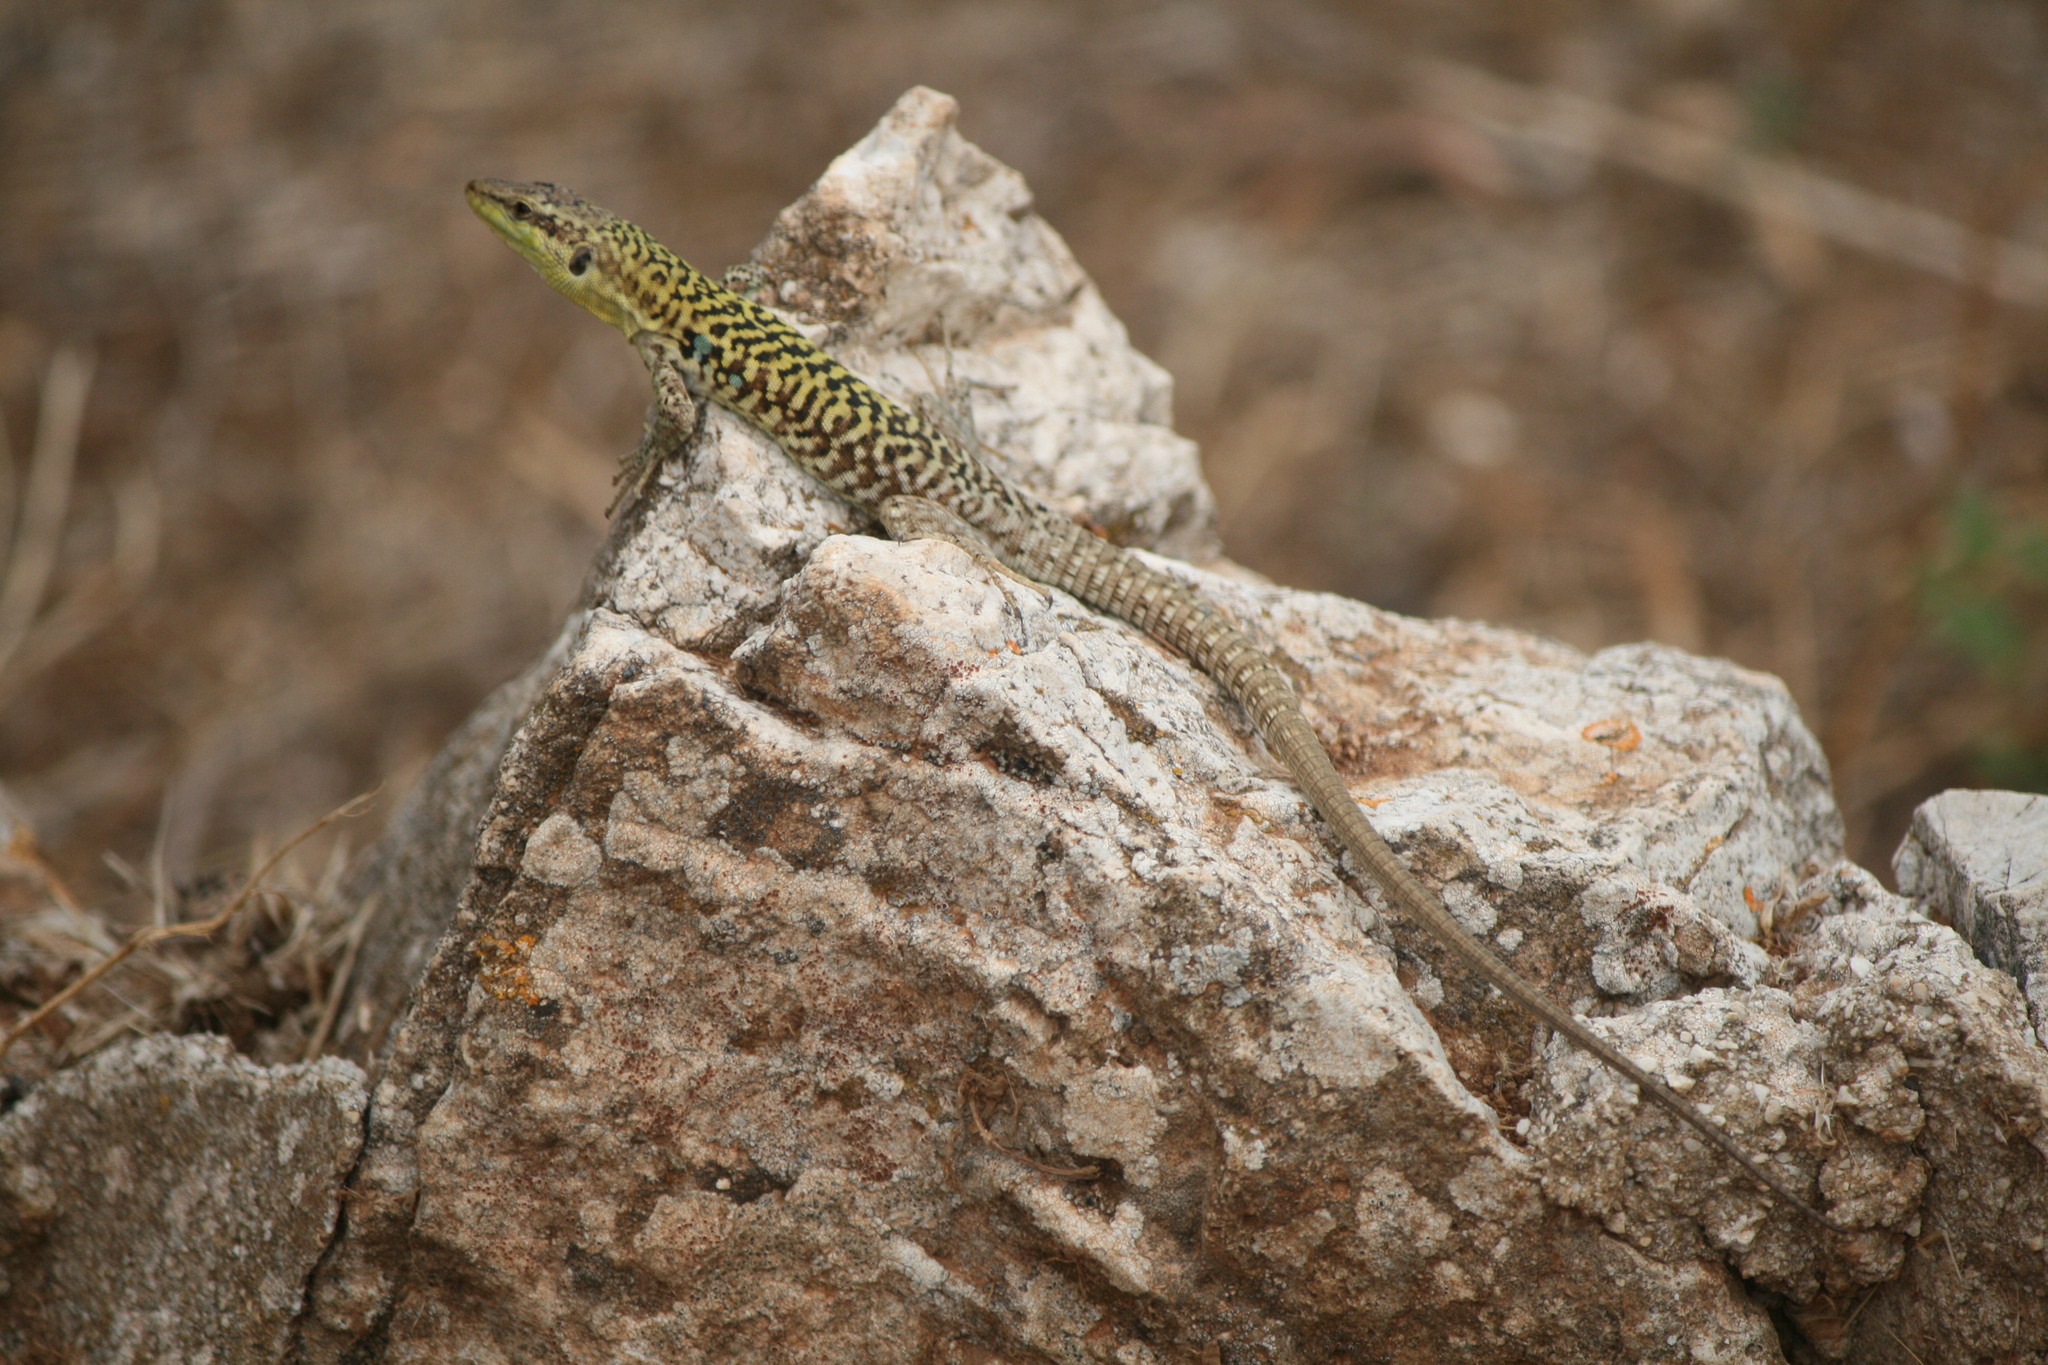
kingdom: Animalia
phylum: Chordata
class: Squamata
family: Lacertidae
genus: Podarcis
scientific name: Podarcis siculus
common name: Italian wall lizard
